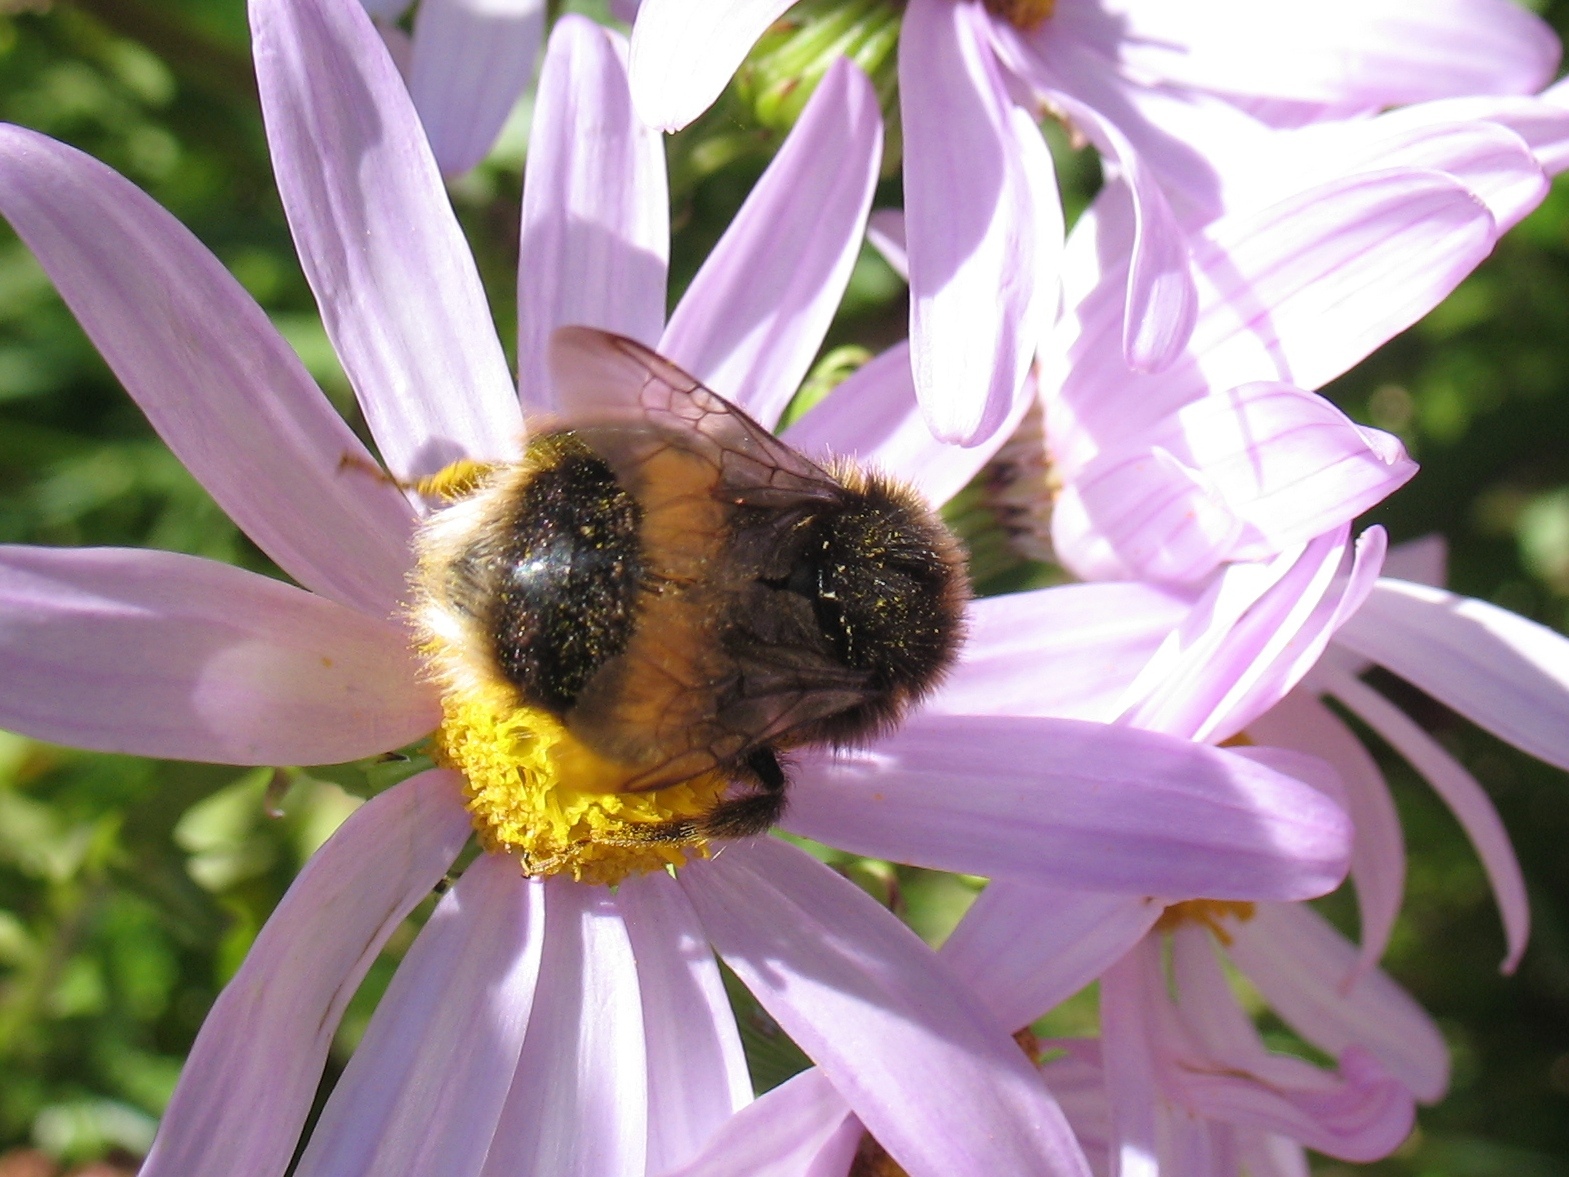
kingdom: Animalia
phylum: Arthropoda
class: Insecta
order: Hymenoptera
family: Apidae
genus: Bombus
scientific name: Bombus terrestris
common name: Buff-tailed bumblebee
